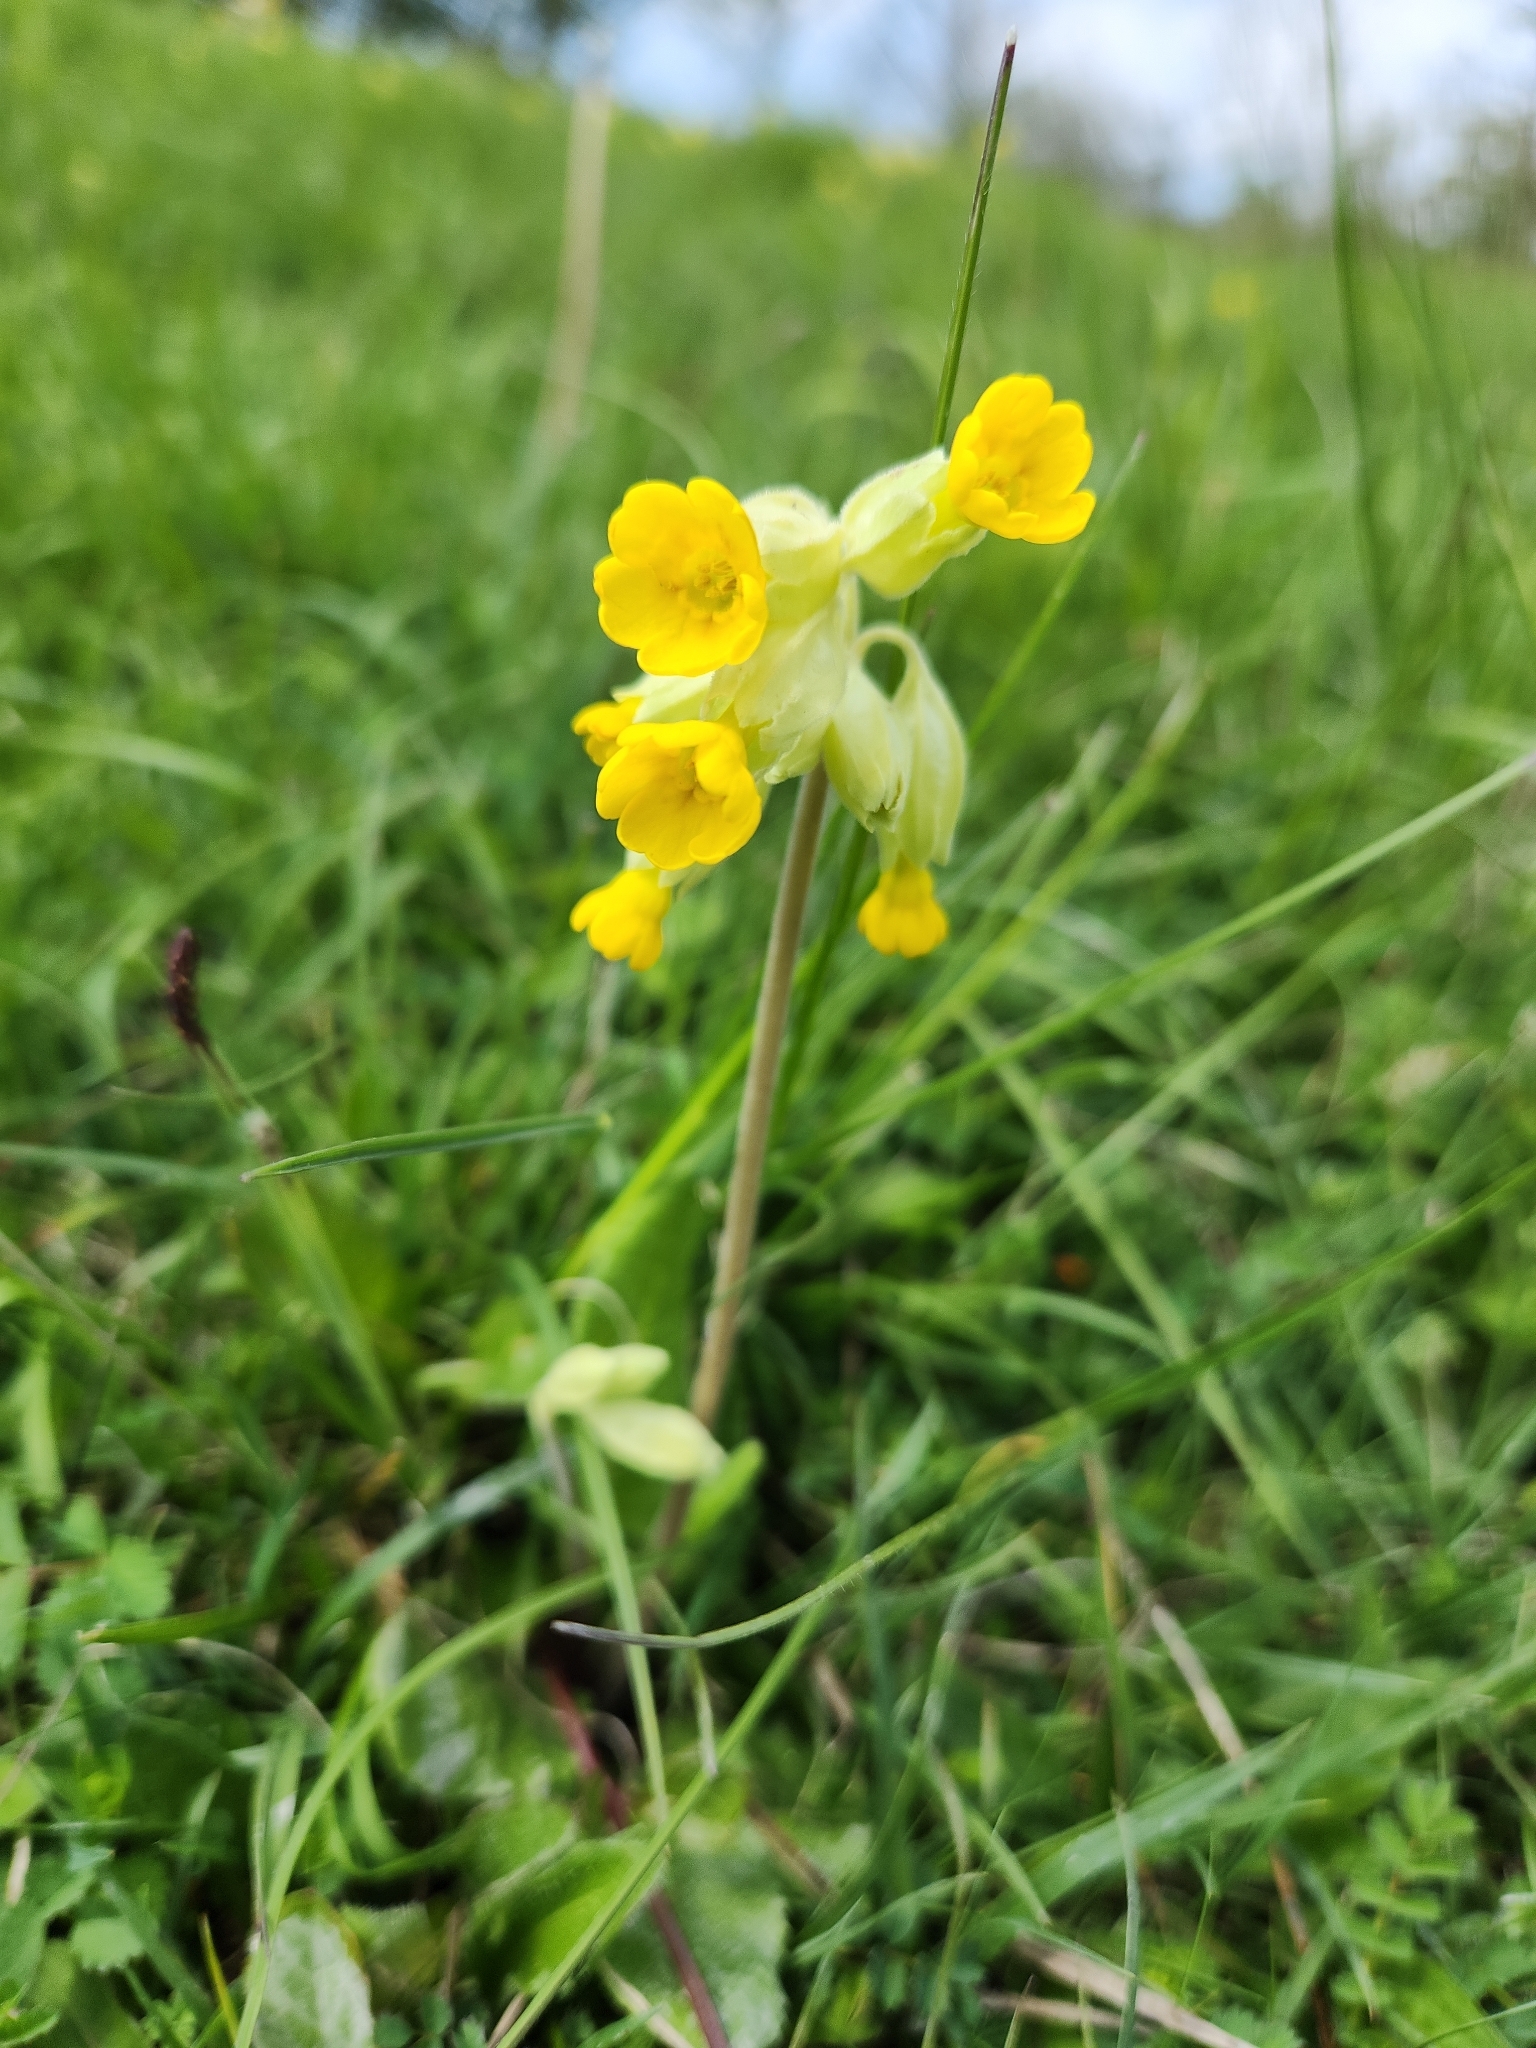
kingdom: Plantae
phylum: Tracheophyta
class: Magnoliopsida
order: Ericales
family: Primulaceae
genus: Primula
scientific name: Primula veris
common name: Cowslip
